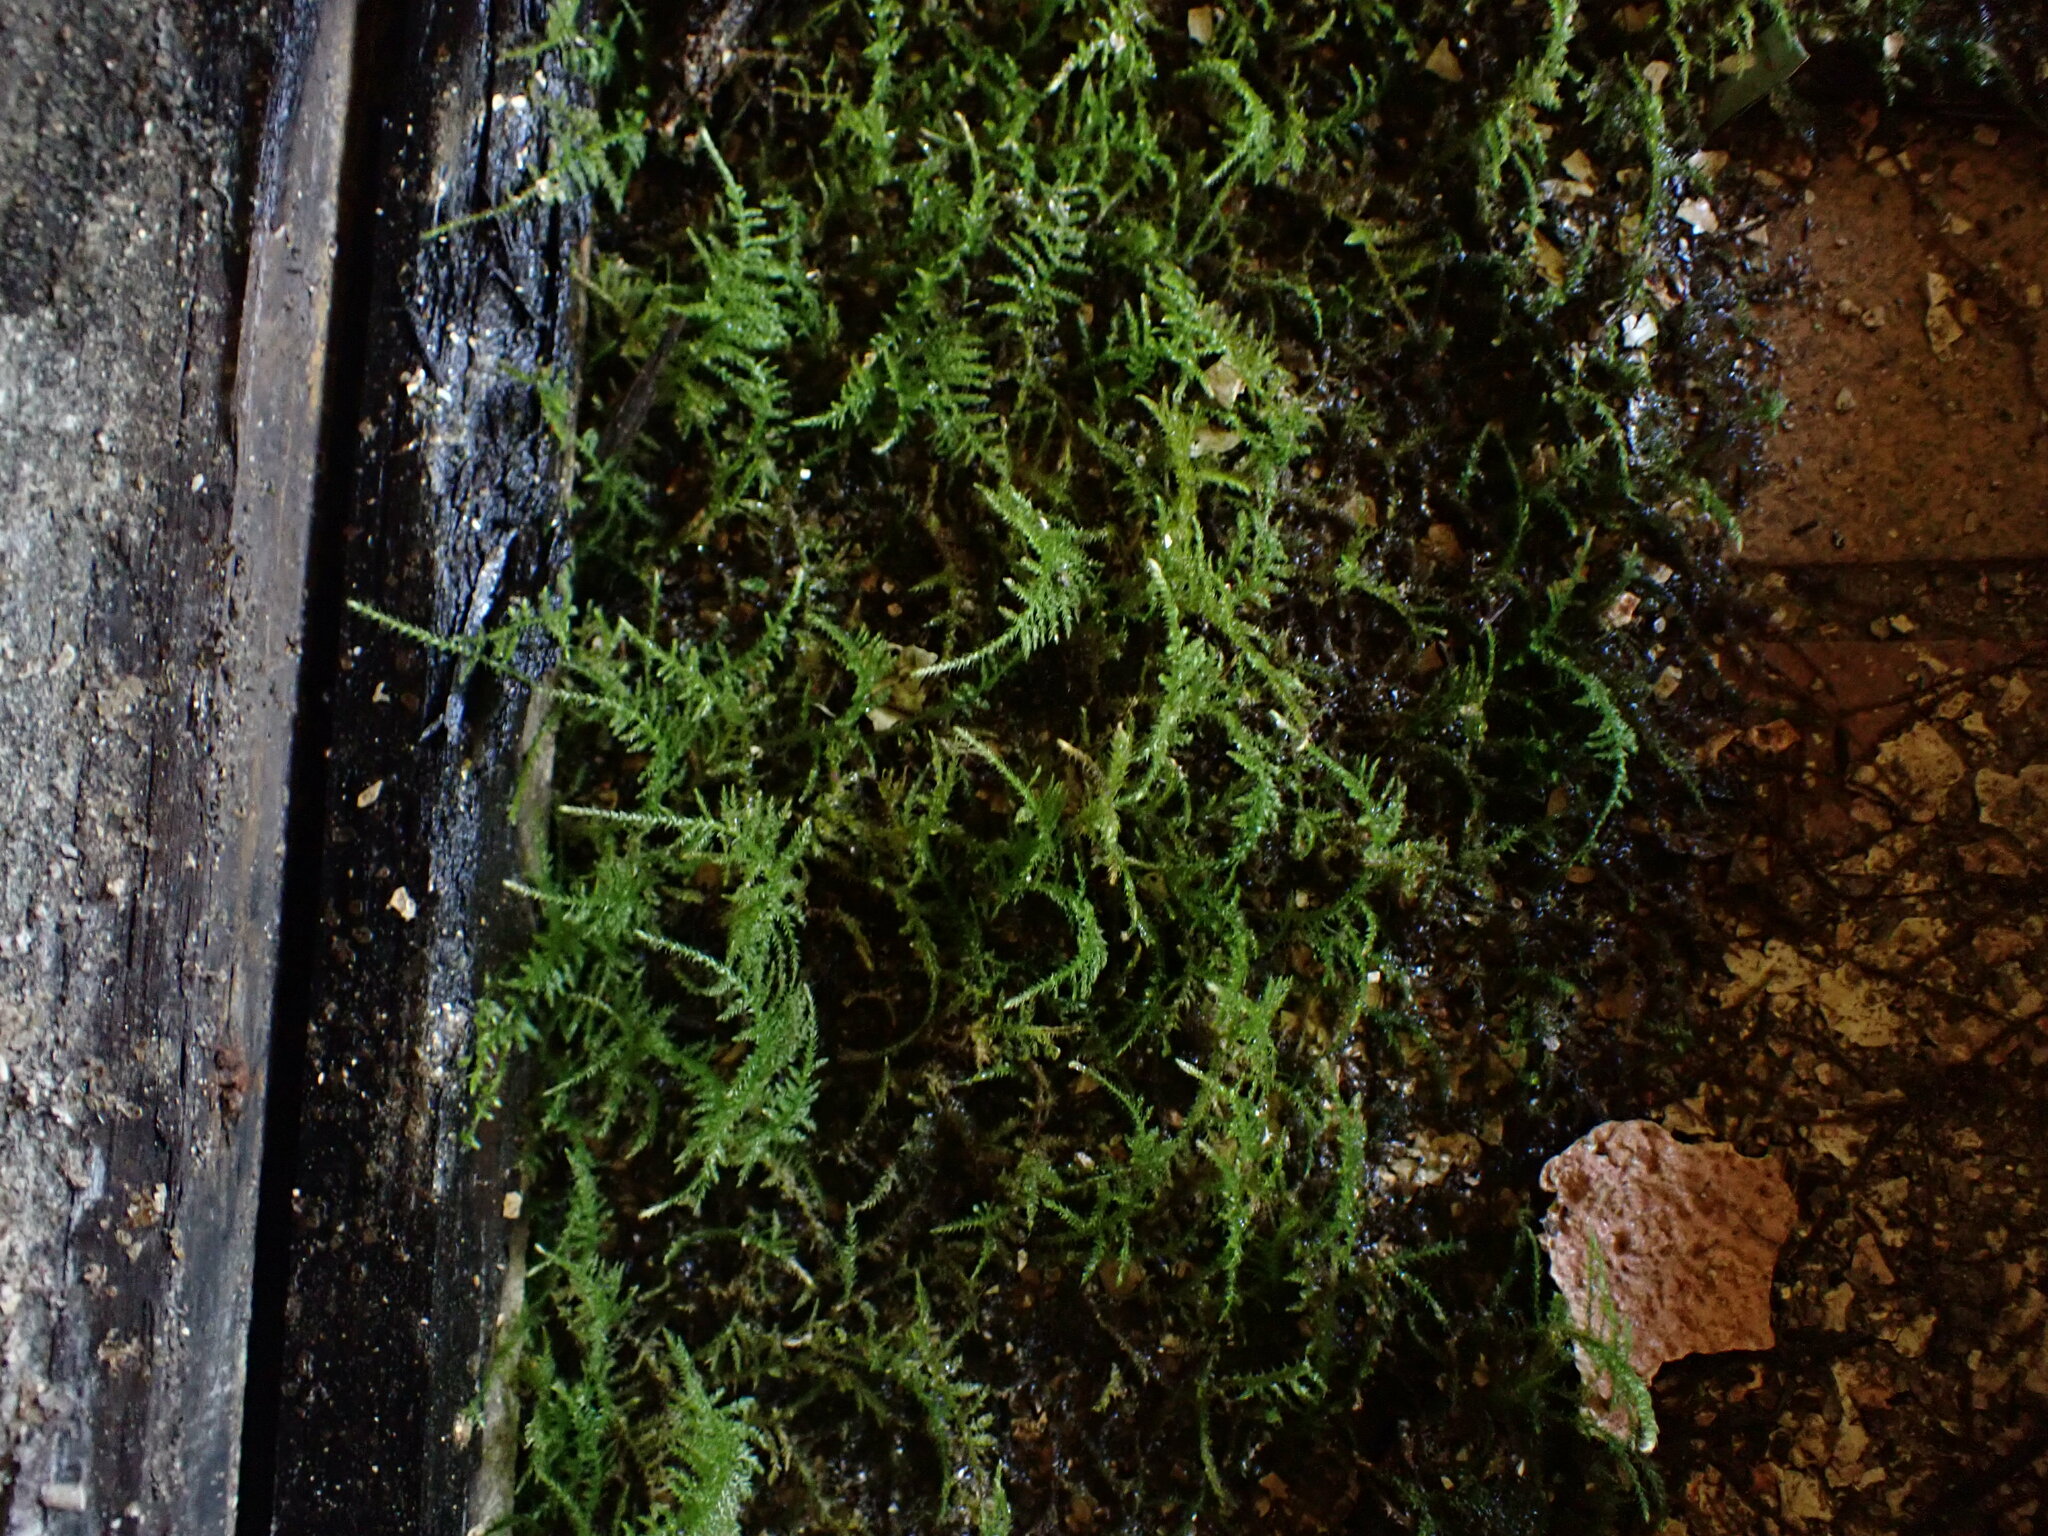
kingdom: Plantae
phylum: Bryophyta
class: Bryopsida
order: Hypnales
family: Brachytheciaceae
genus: Kindbergia
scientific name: Kindbergia praelonga
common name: Slender beaked moss
